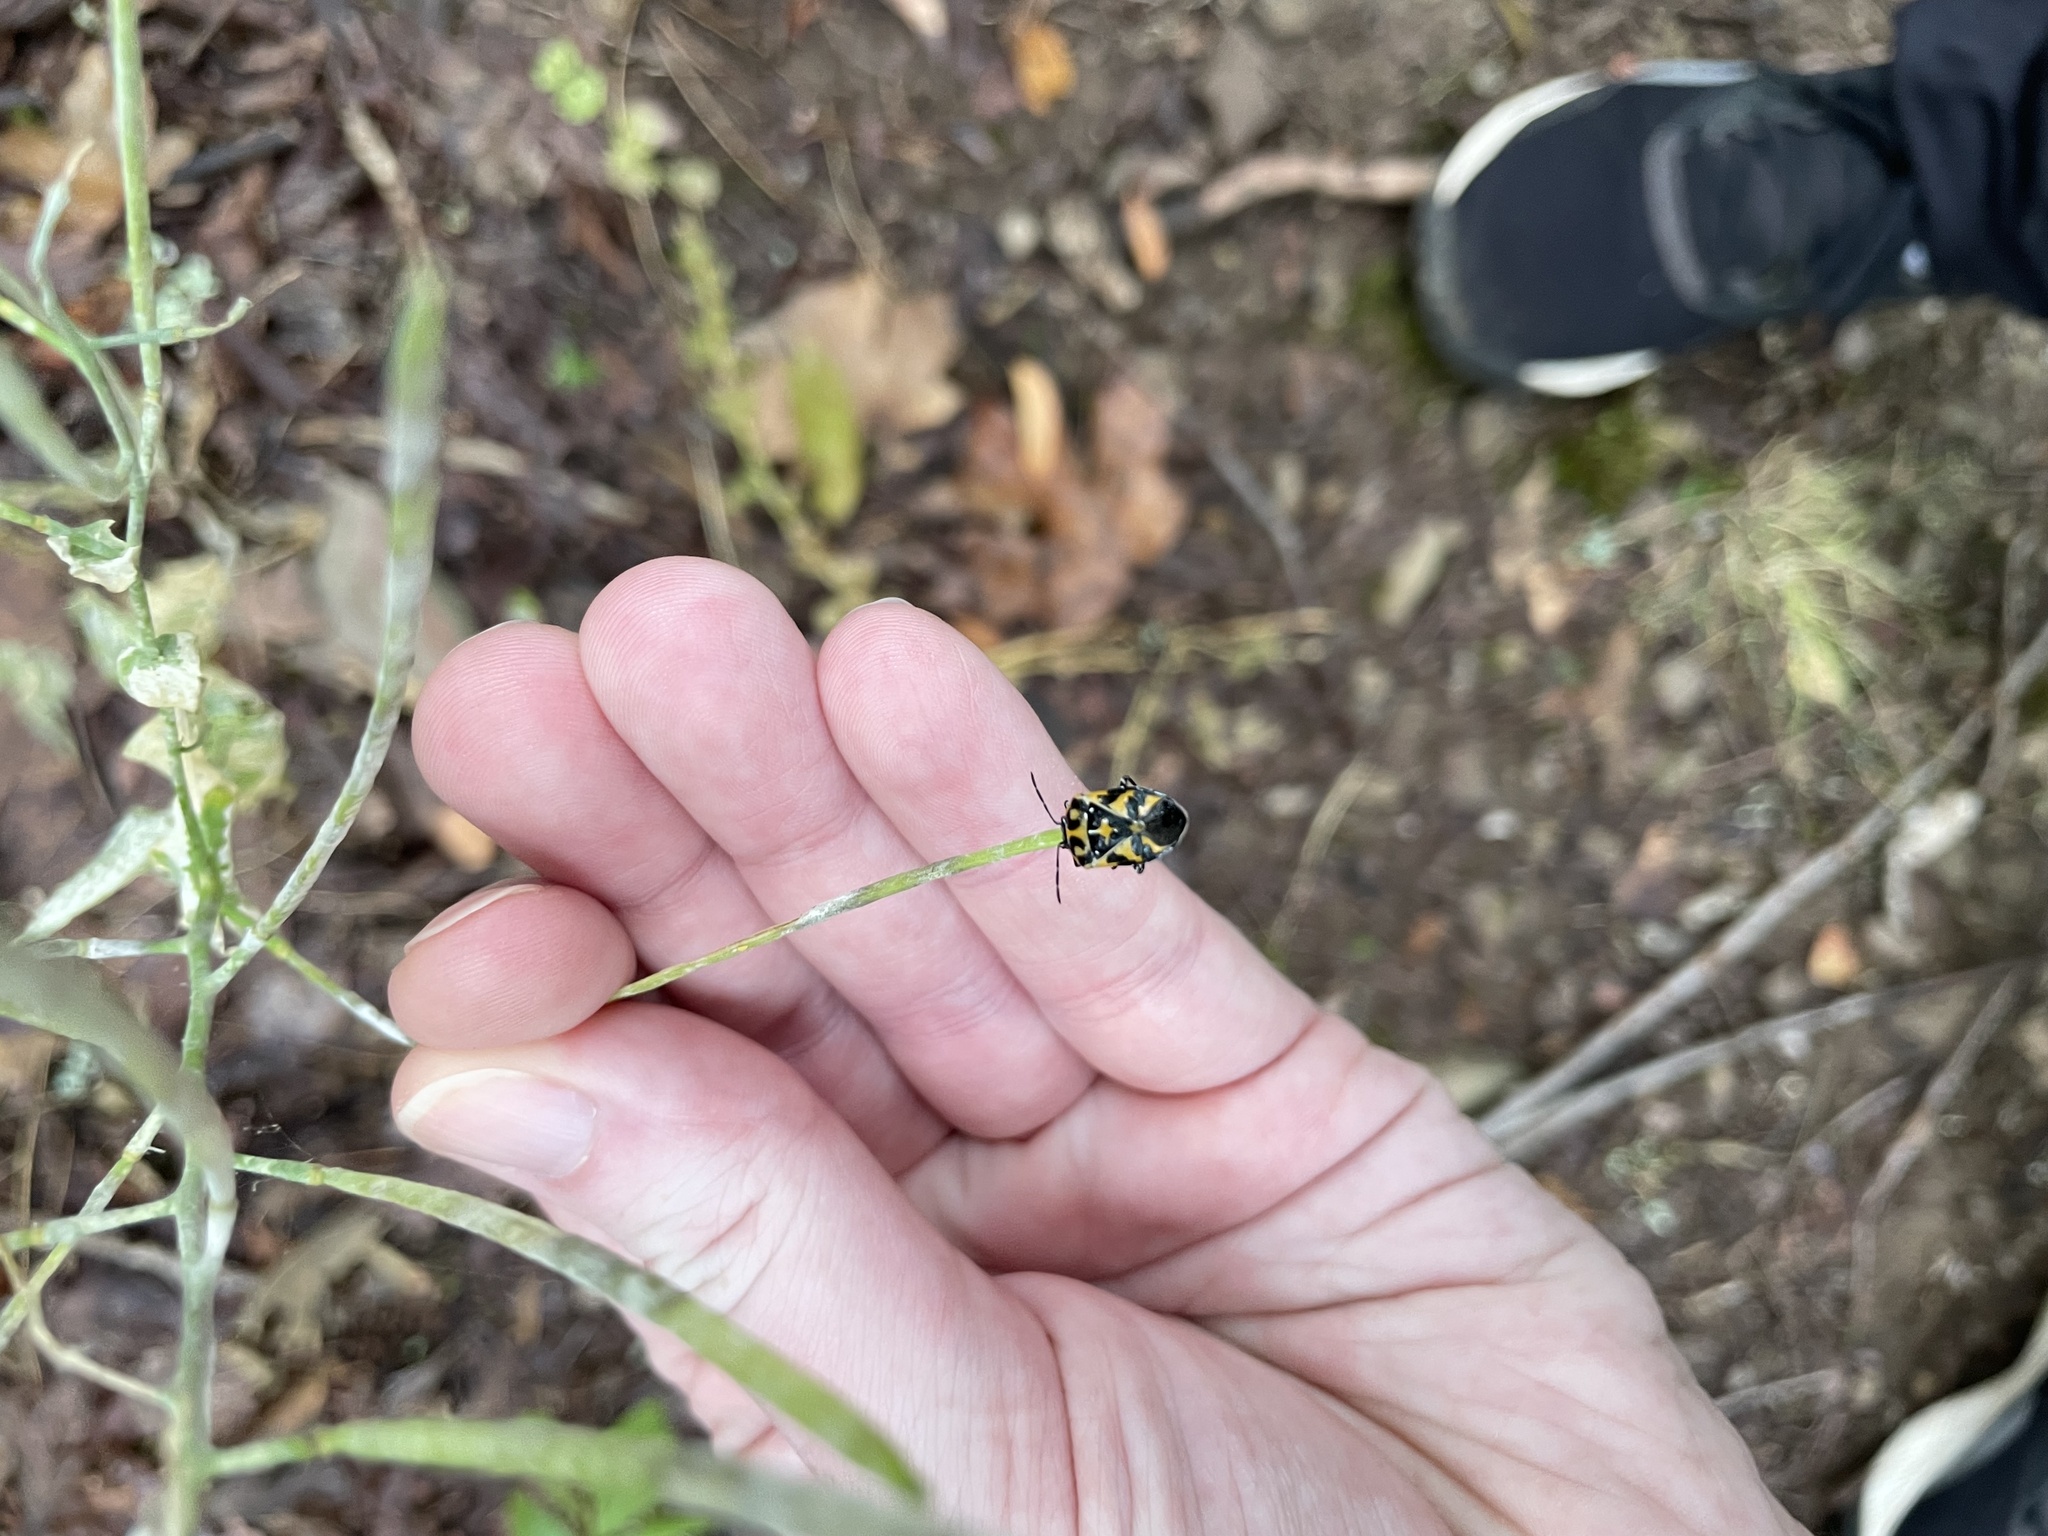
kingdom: Animalia
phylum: Arthropoda
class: Insecta
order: Hemiptera
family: Pentatomidae
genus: Murgantia
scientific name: Murgantia histrionica
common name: Harlequin bug
